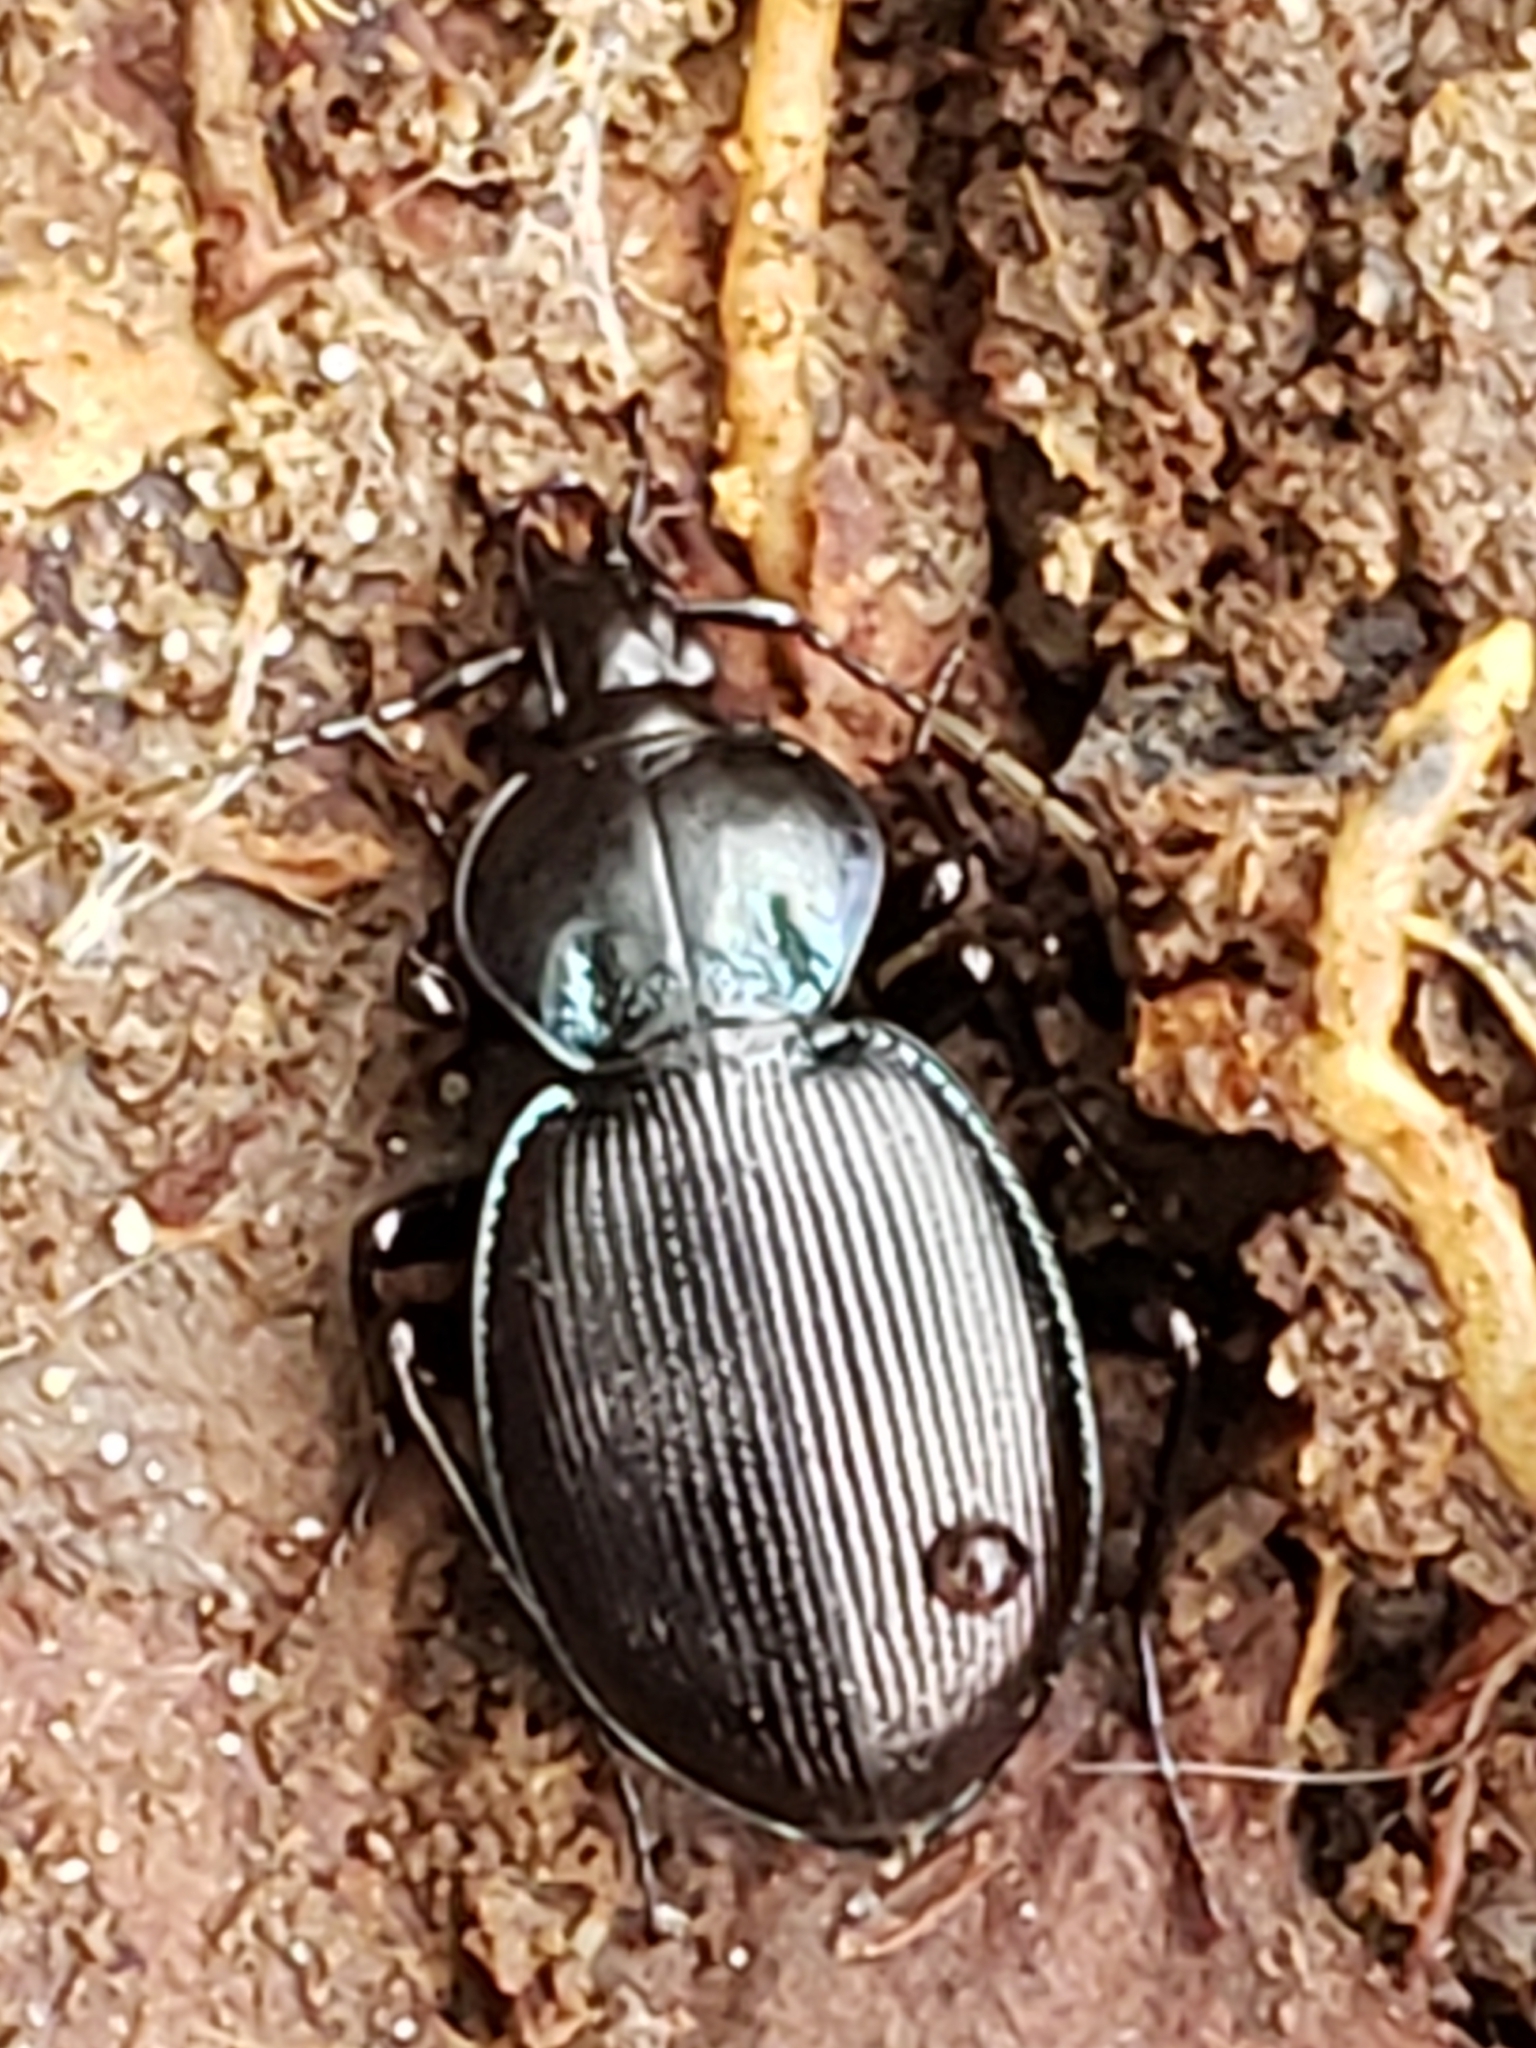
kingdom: Animalia
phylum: Arthropoda
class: Insecta
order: Coleoptera
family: Carabidae
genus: Sphaeroderus
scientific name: Sphaeroderus stenostomus
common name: Small snail-eating ground beetle
